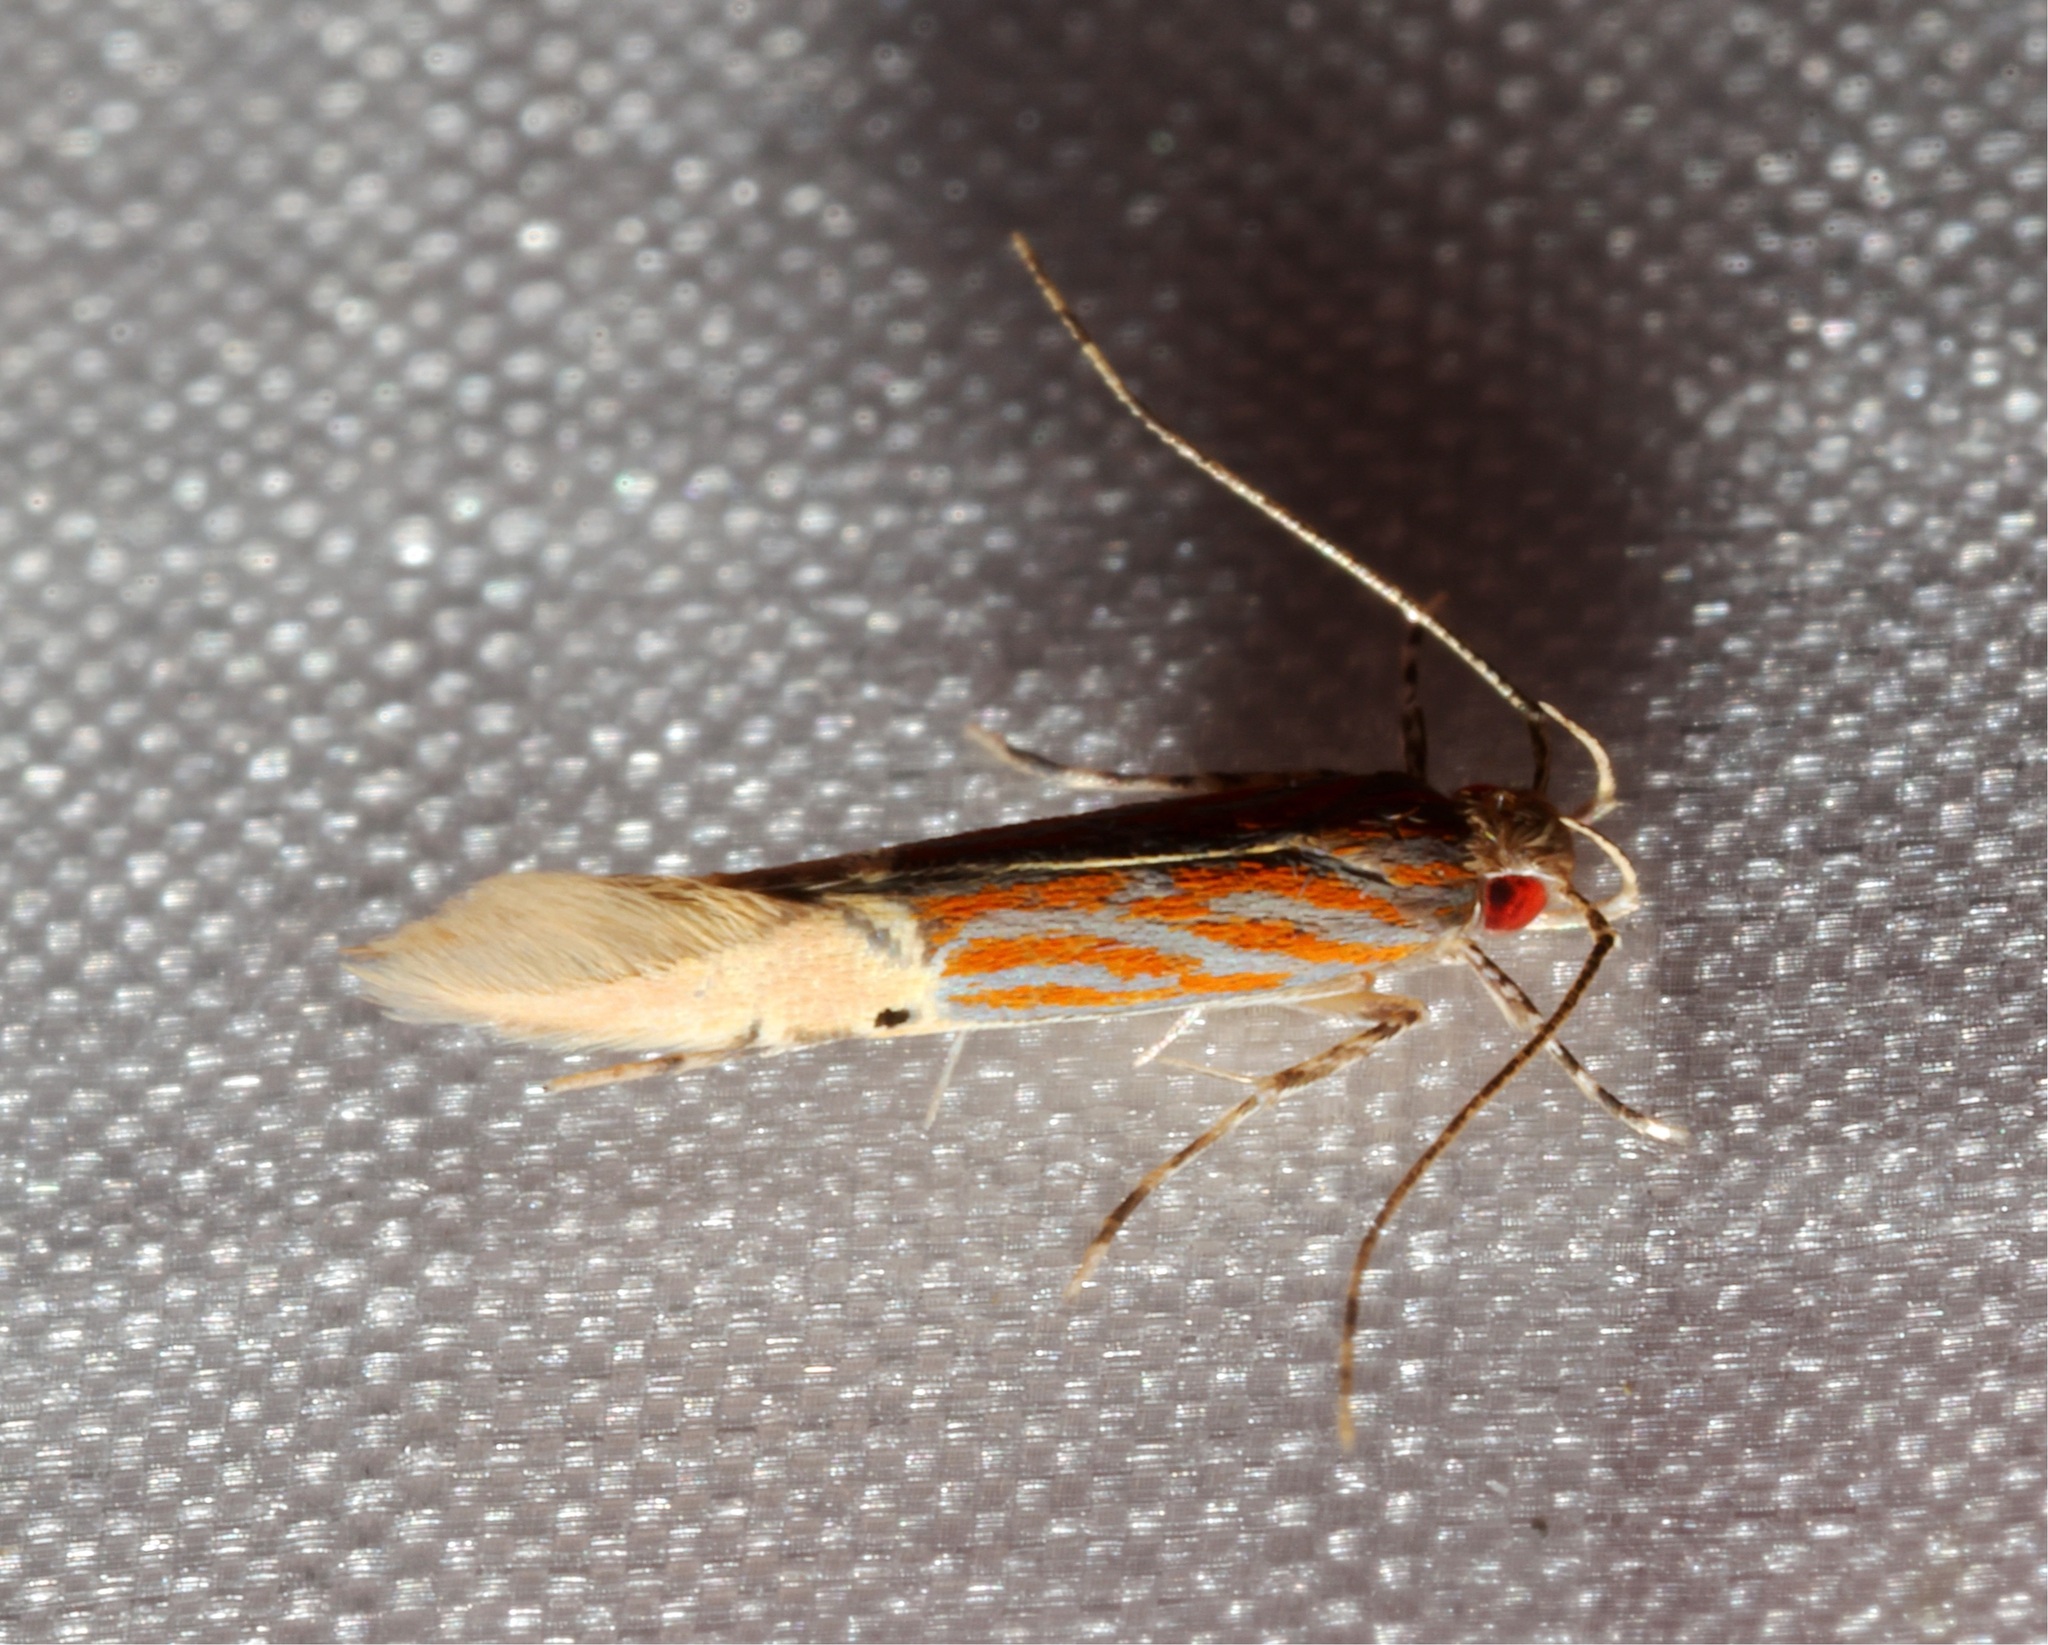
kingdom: Animalia
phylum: Arthropoda
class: Insecta
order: Lepidoptera
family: Cosmopterigidae
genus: Labdia
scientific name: Labdia semicoccinea
